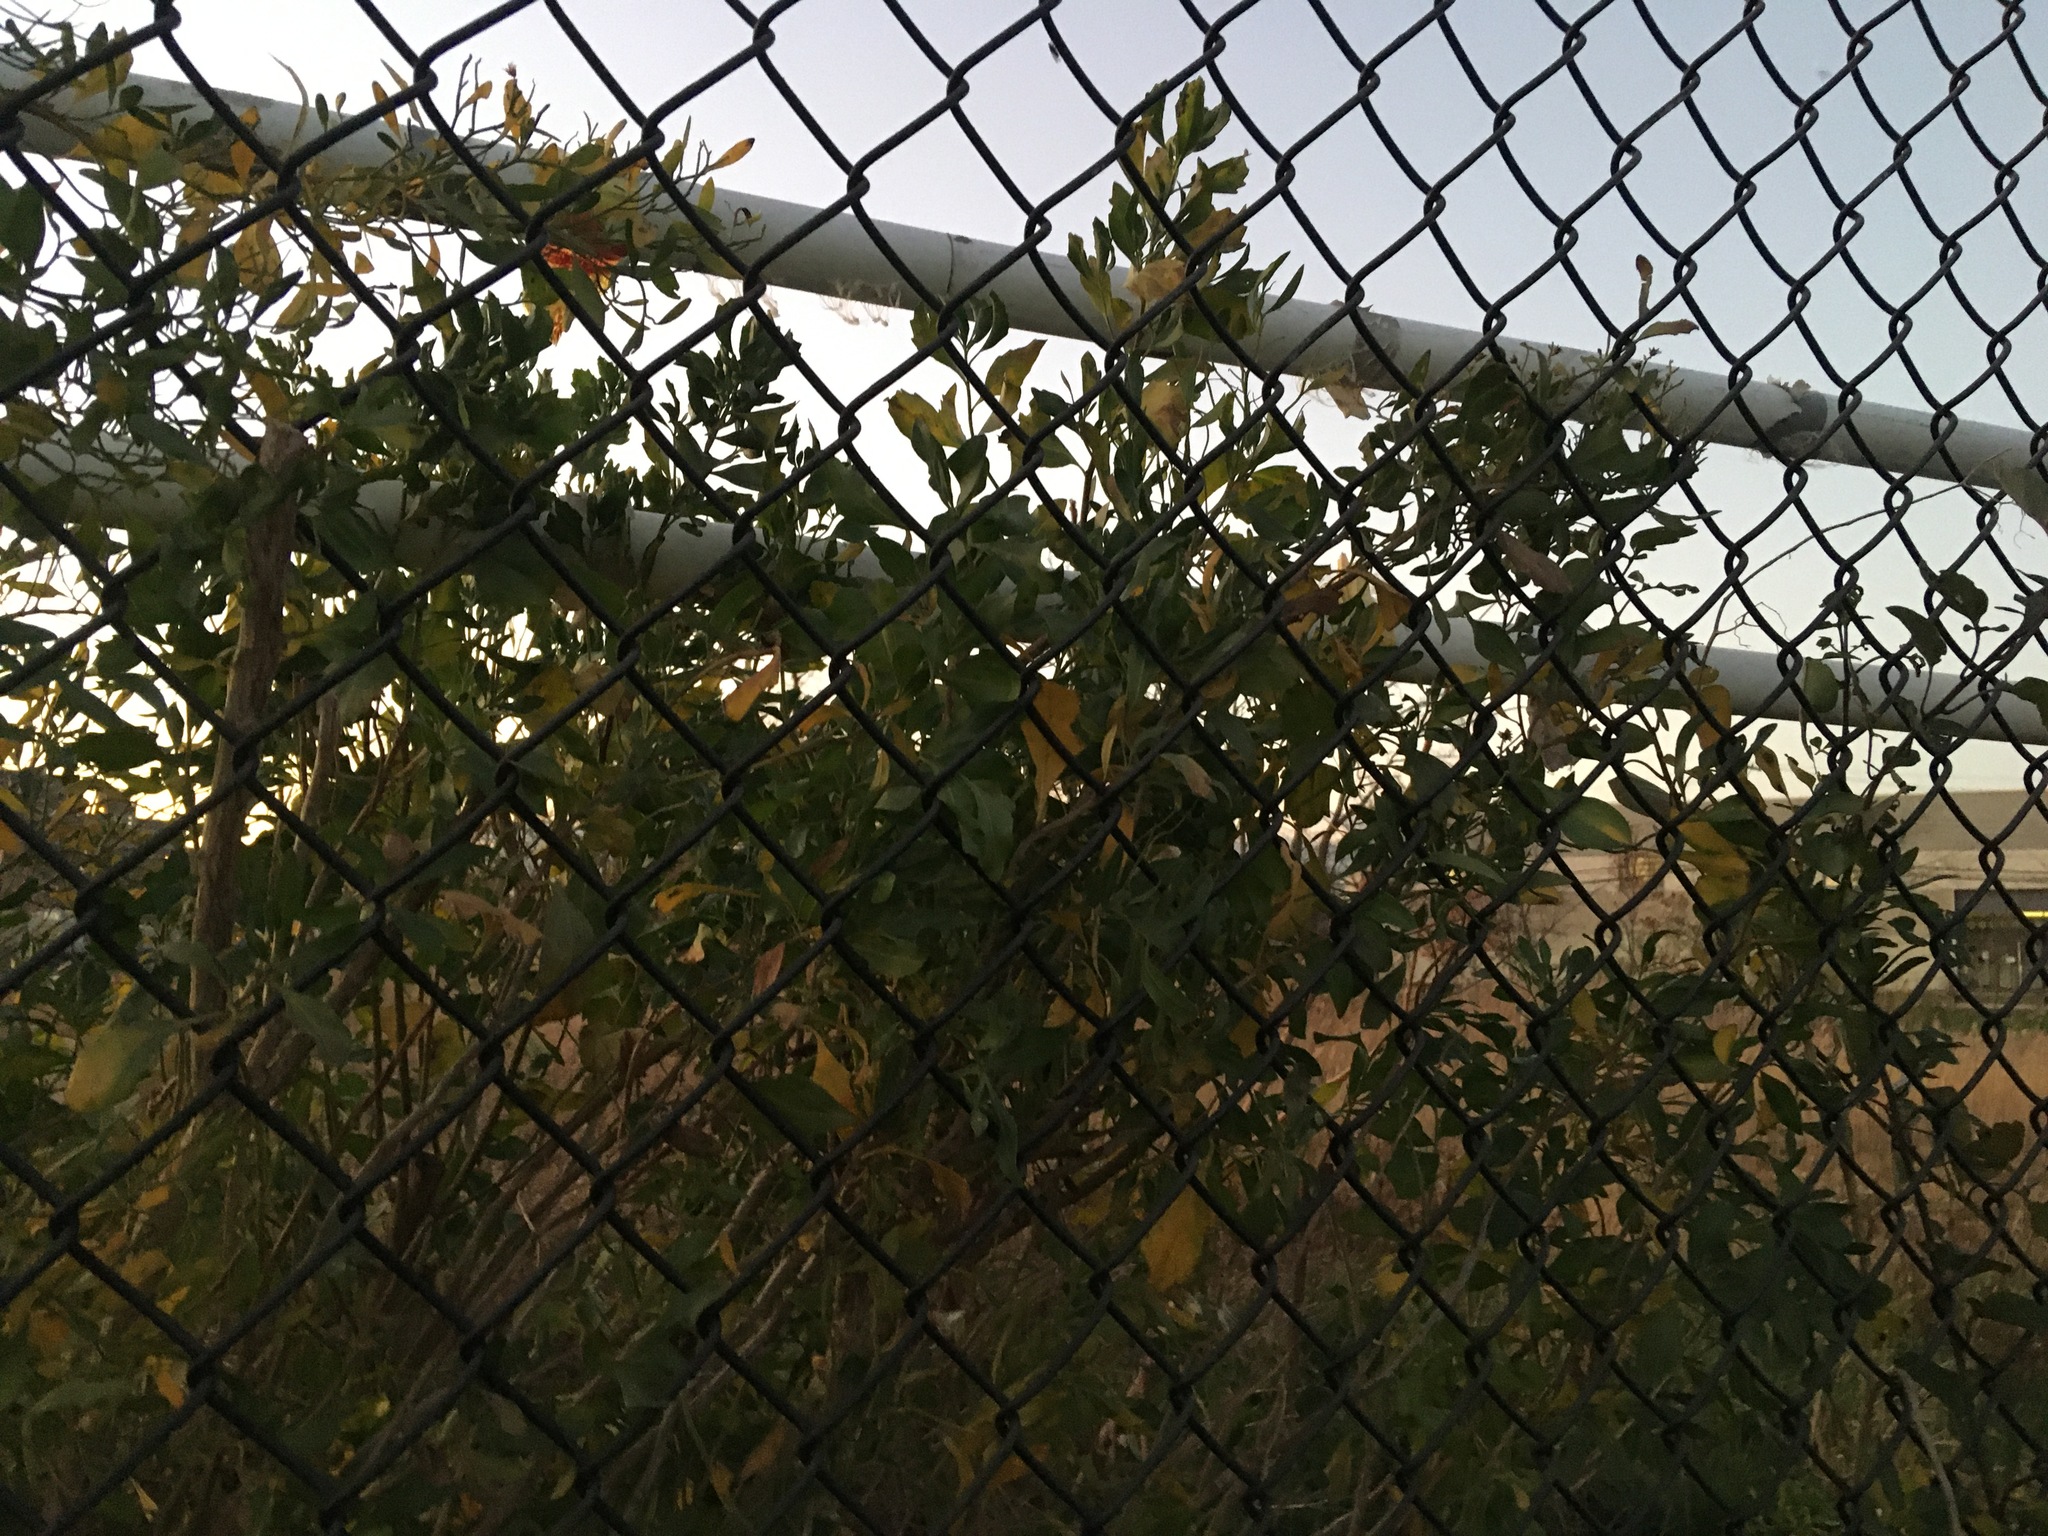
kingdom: Plantae
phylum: Tracheophyta
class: Magnoliopsida
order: Asterales
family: Asteraceae
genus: Baccharis
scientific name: Baccharis halimifolia
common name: Eastern baccharis
